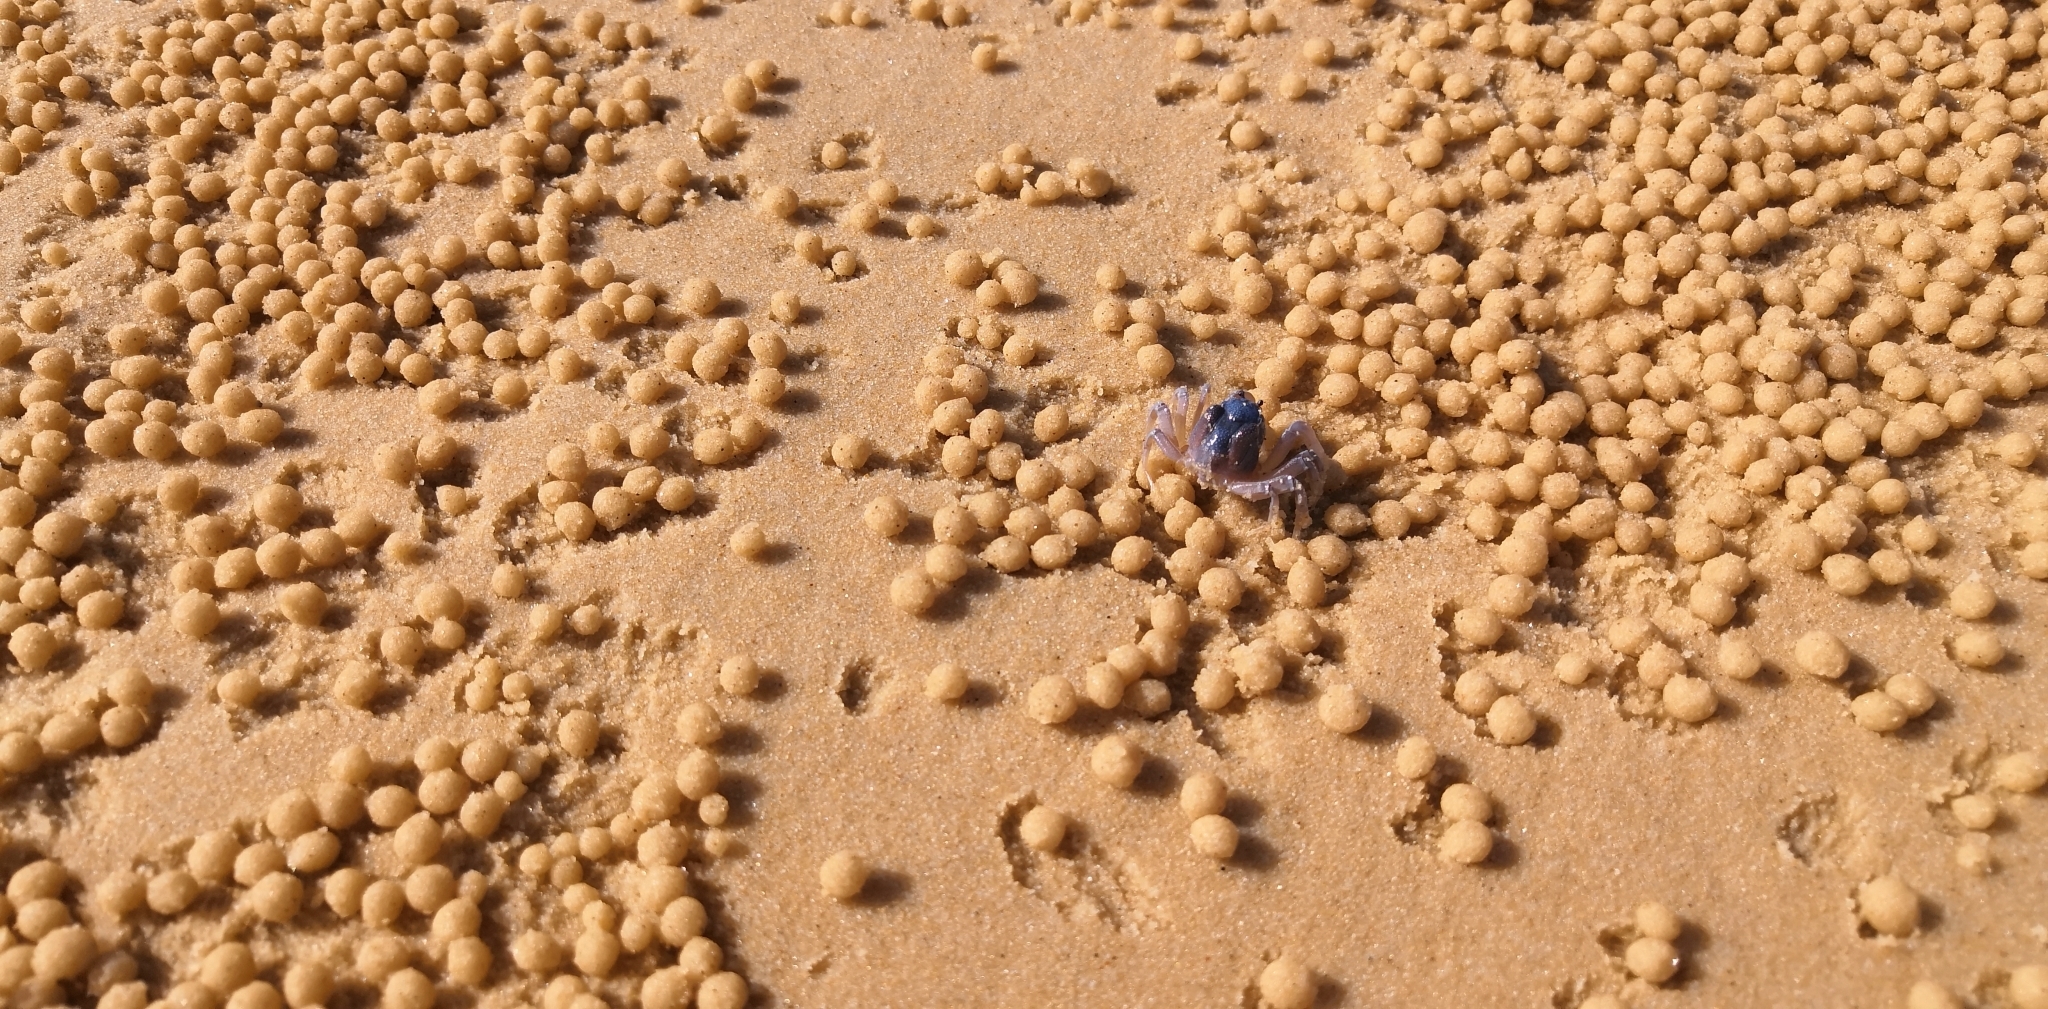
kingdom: Animalia
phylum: Arthropoda
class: Malacostraca
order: Decapoda
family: Mictyridae
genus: Mictyris
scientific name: Mictyris platycheles
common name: Dark blue soldier crab
